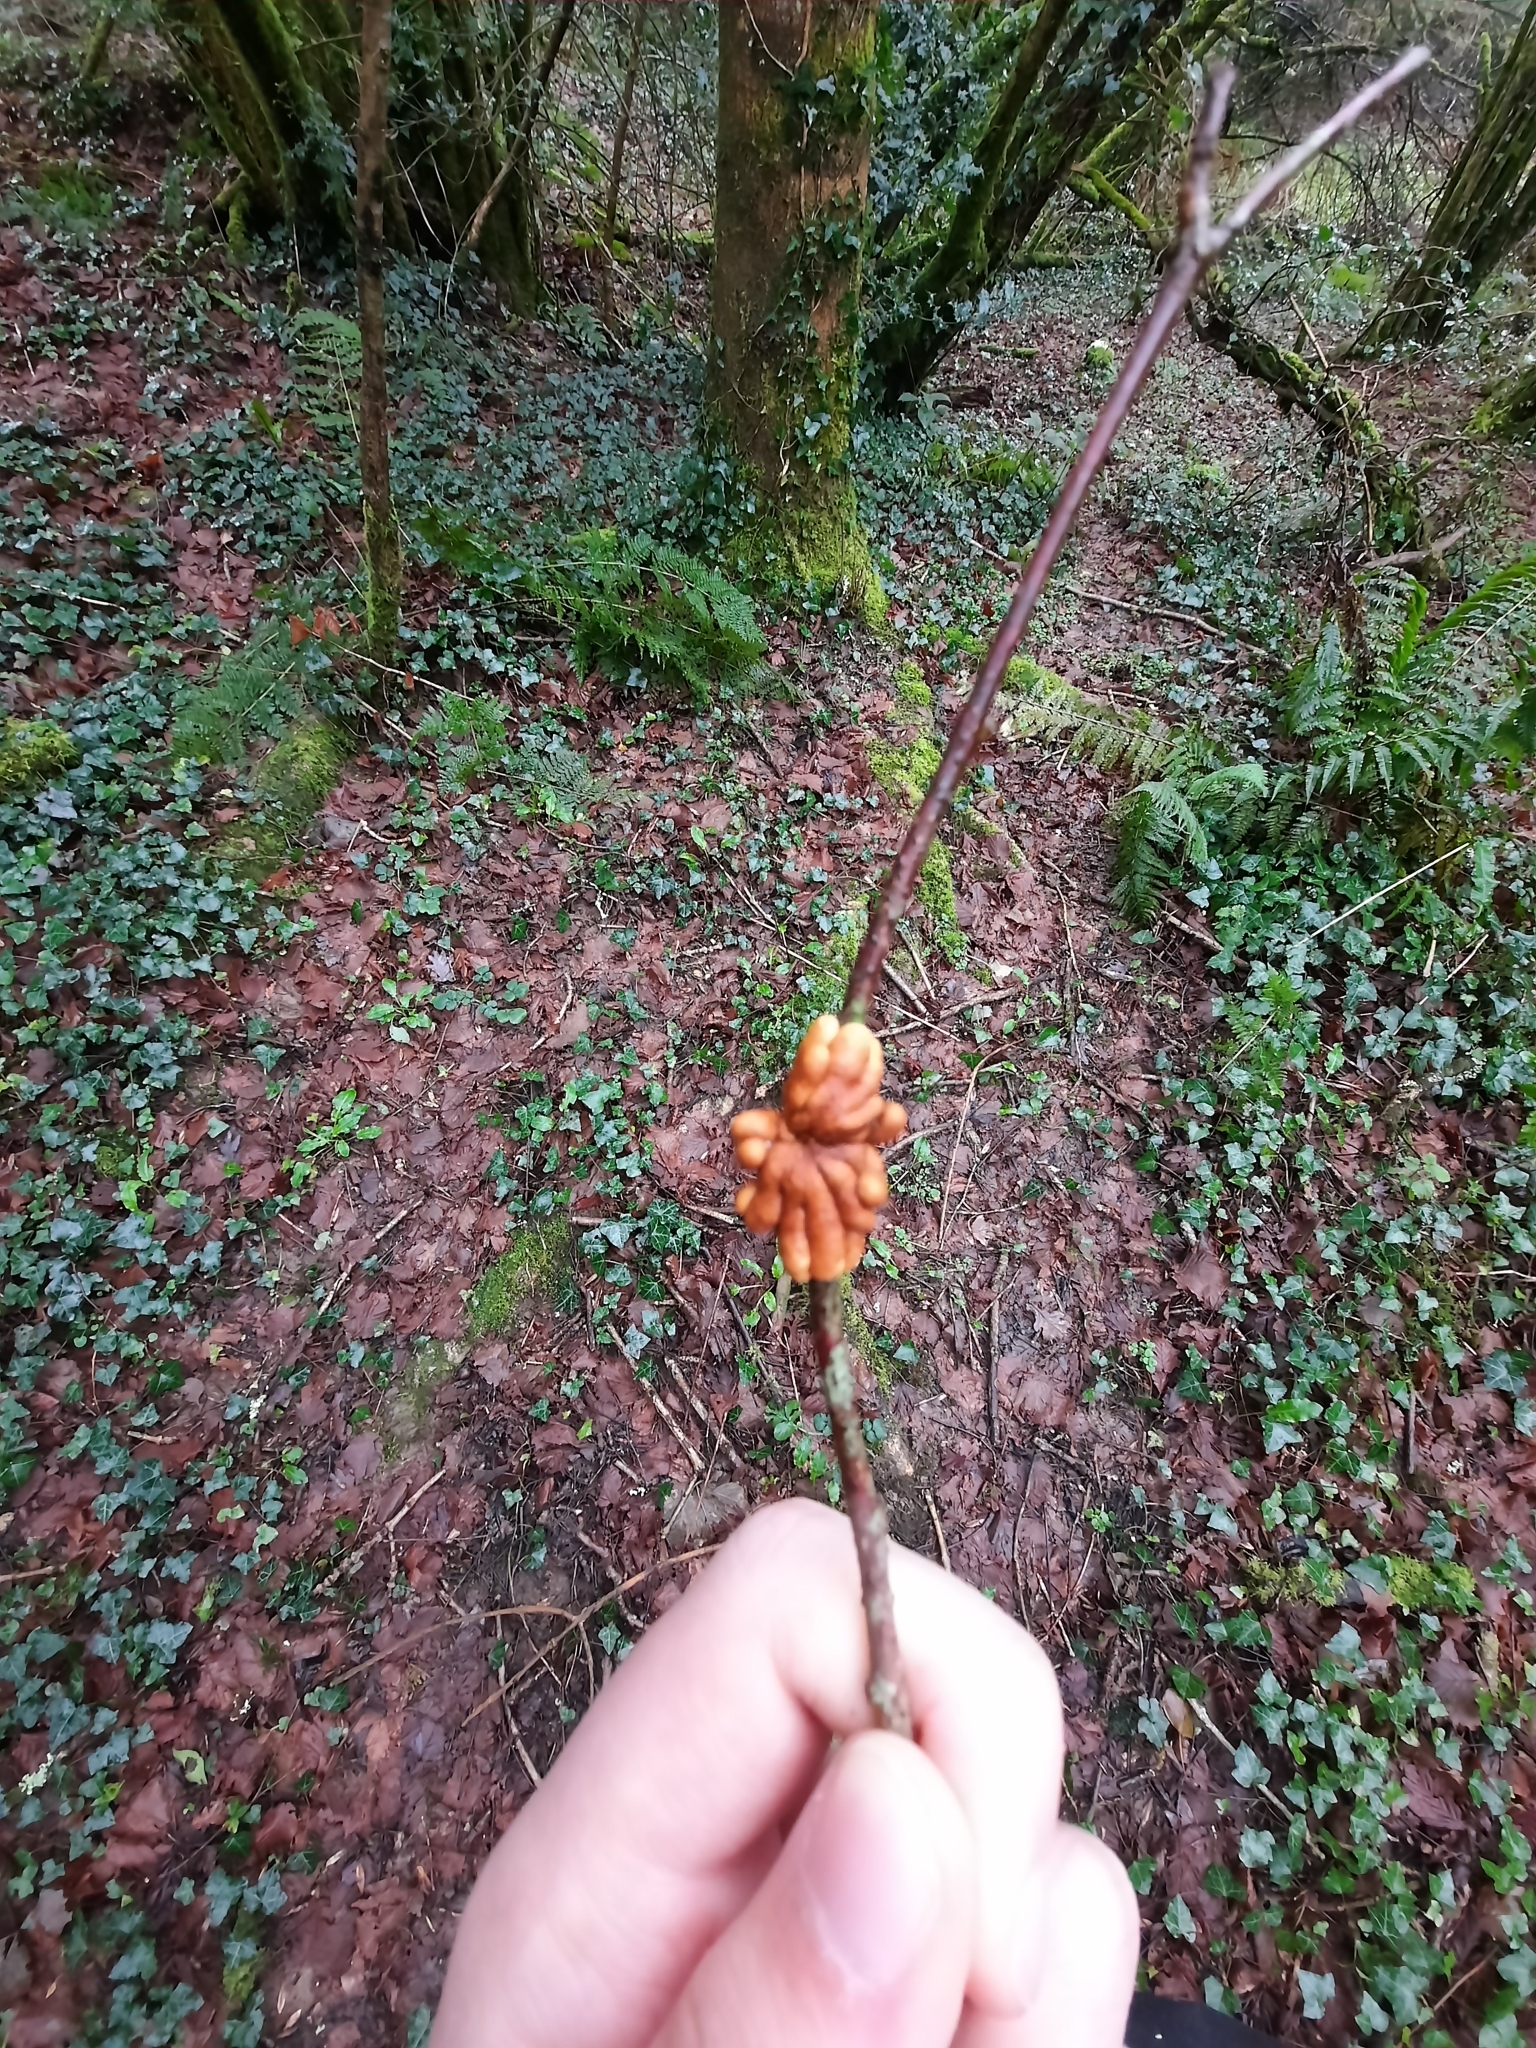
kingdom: Fungi
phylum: Ascomycota
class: Sordariomycetes
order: Hypocreales
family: Hypocreaceae
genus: Hypocreopsis
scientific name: Hypocreopsis rhododendri
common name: Hazel gloves
